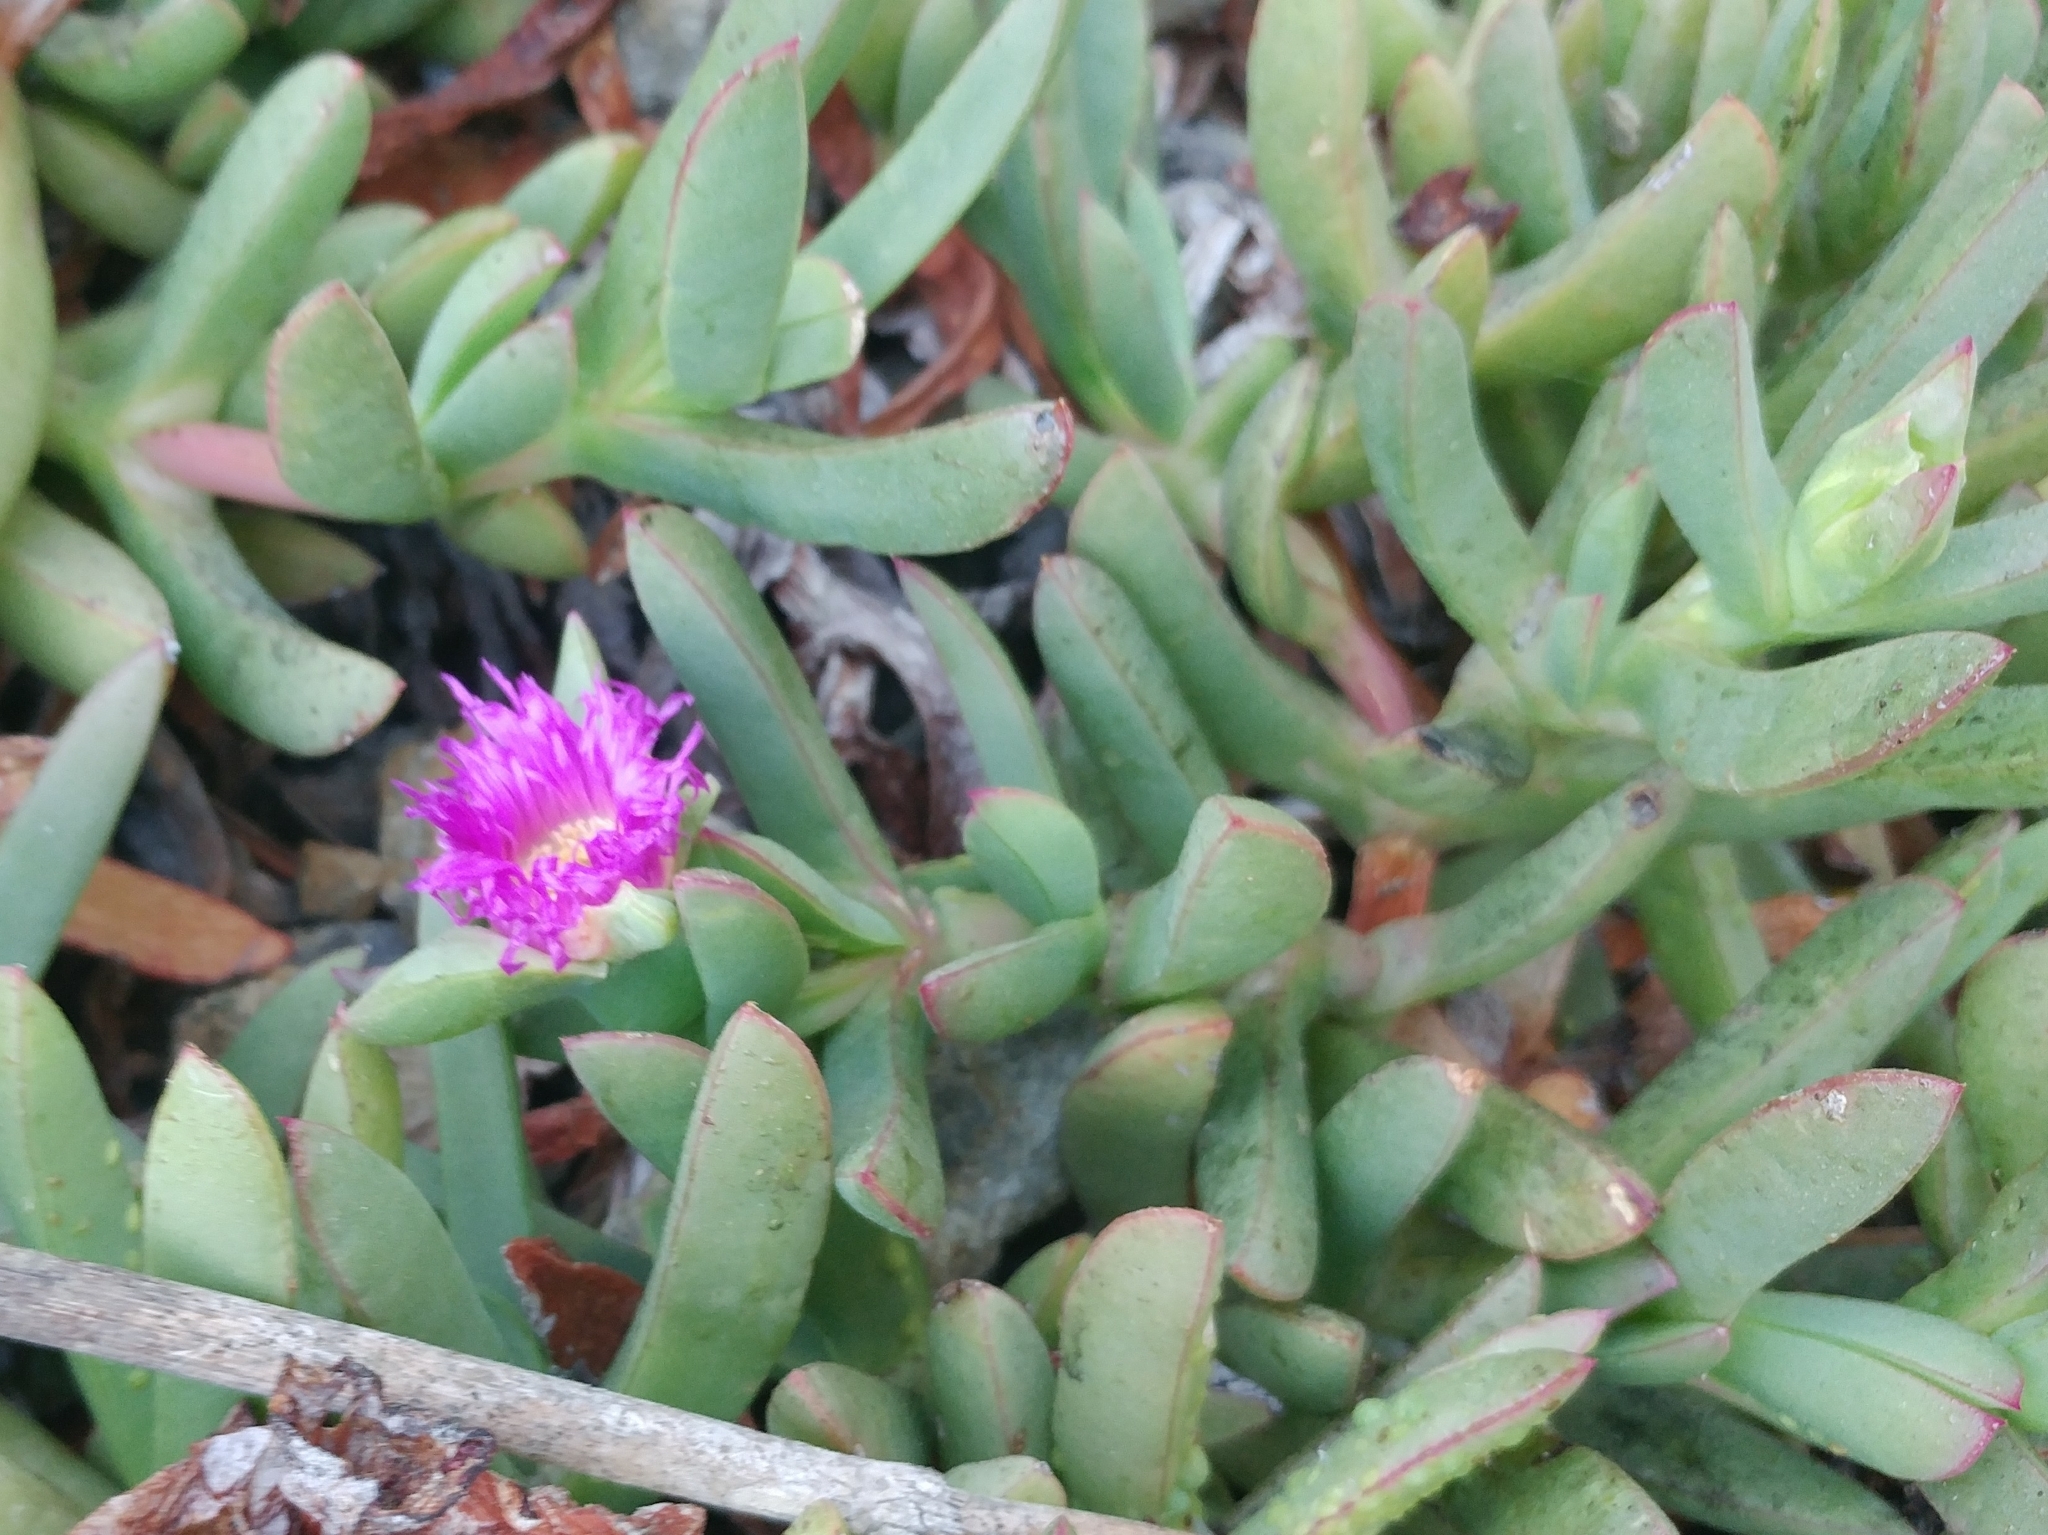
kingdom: Plantae
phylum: Tracheophyta
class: Magnoliopsida
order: Caryophyllales
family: Aizoaceae
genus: Carpobrotus
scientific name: Carpobrotus chilensis
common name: Sea fig
